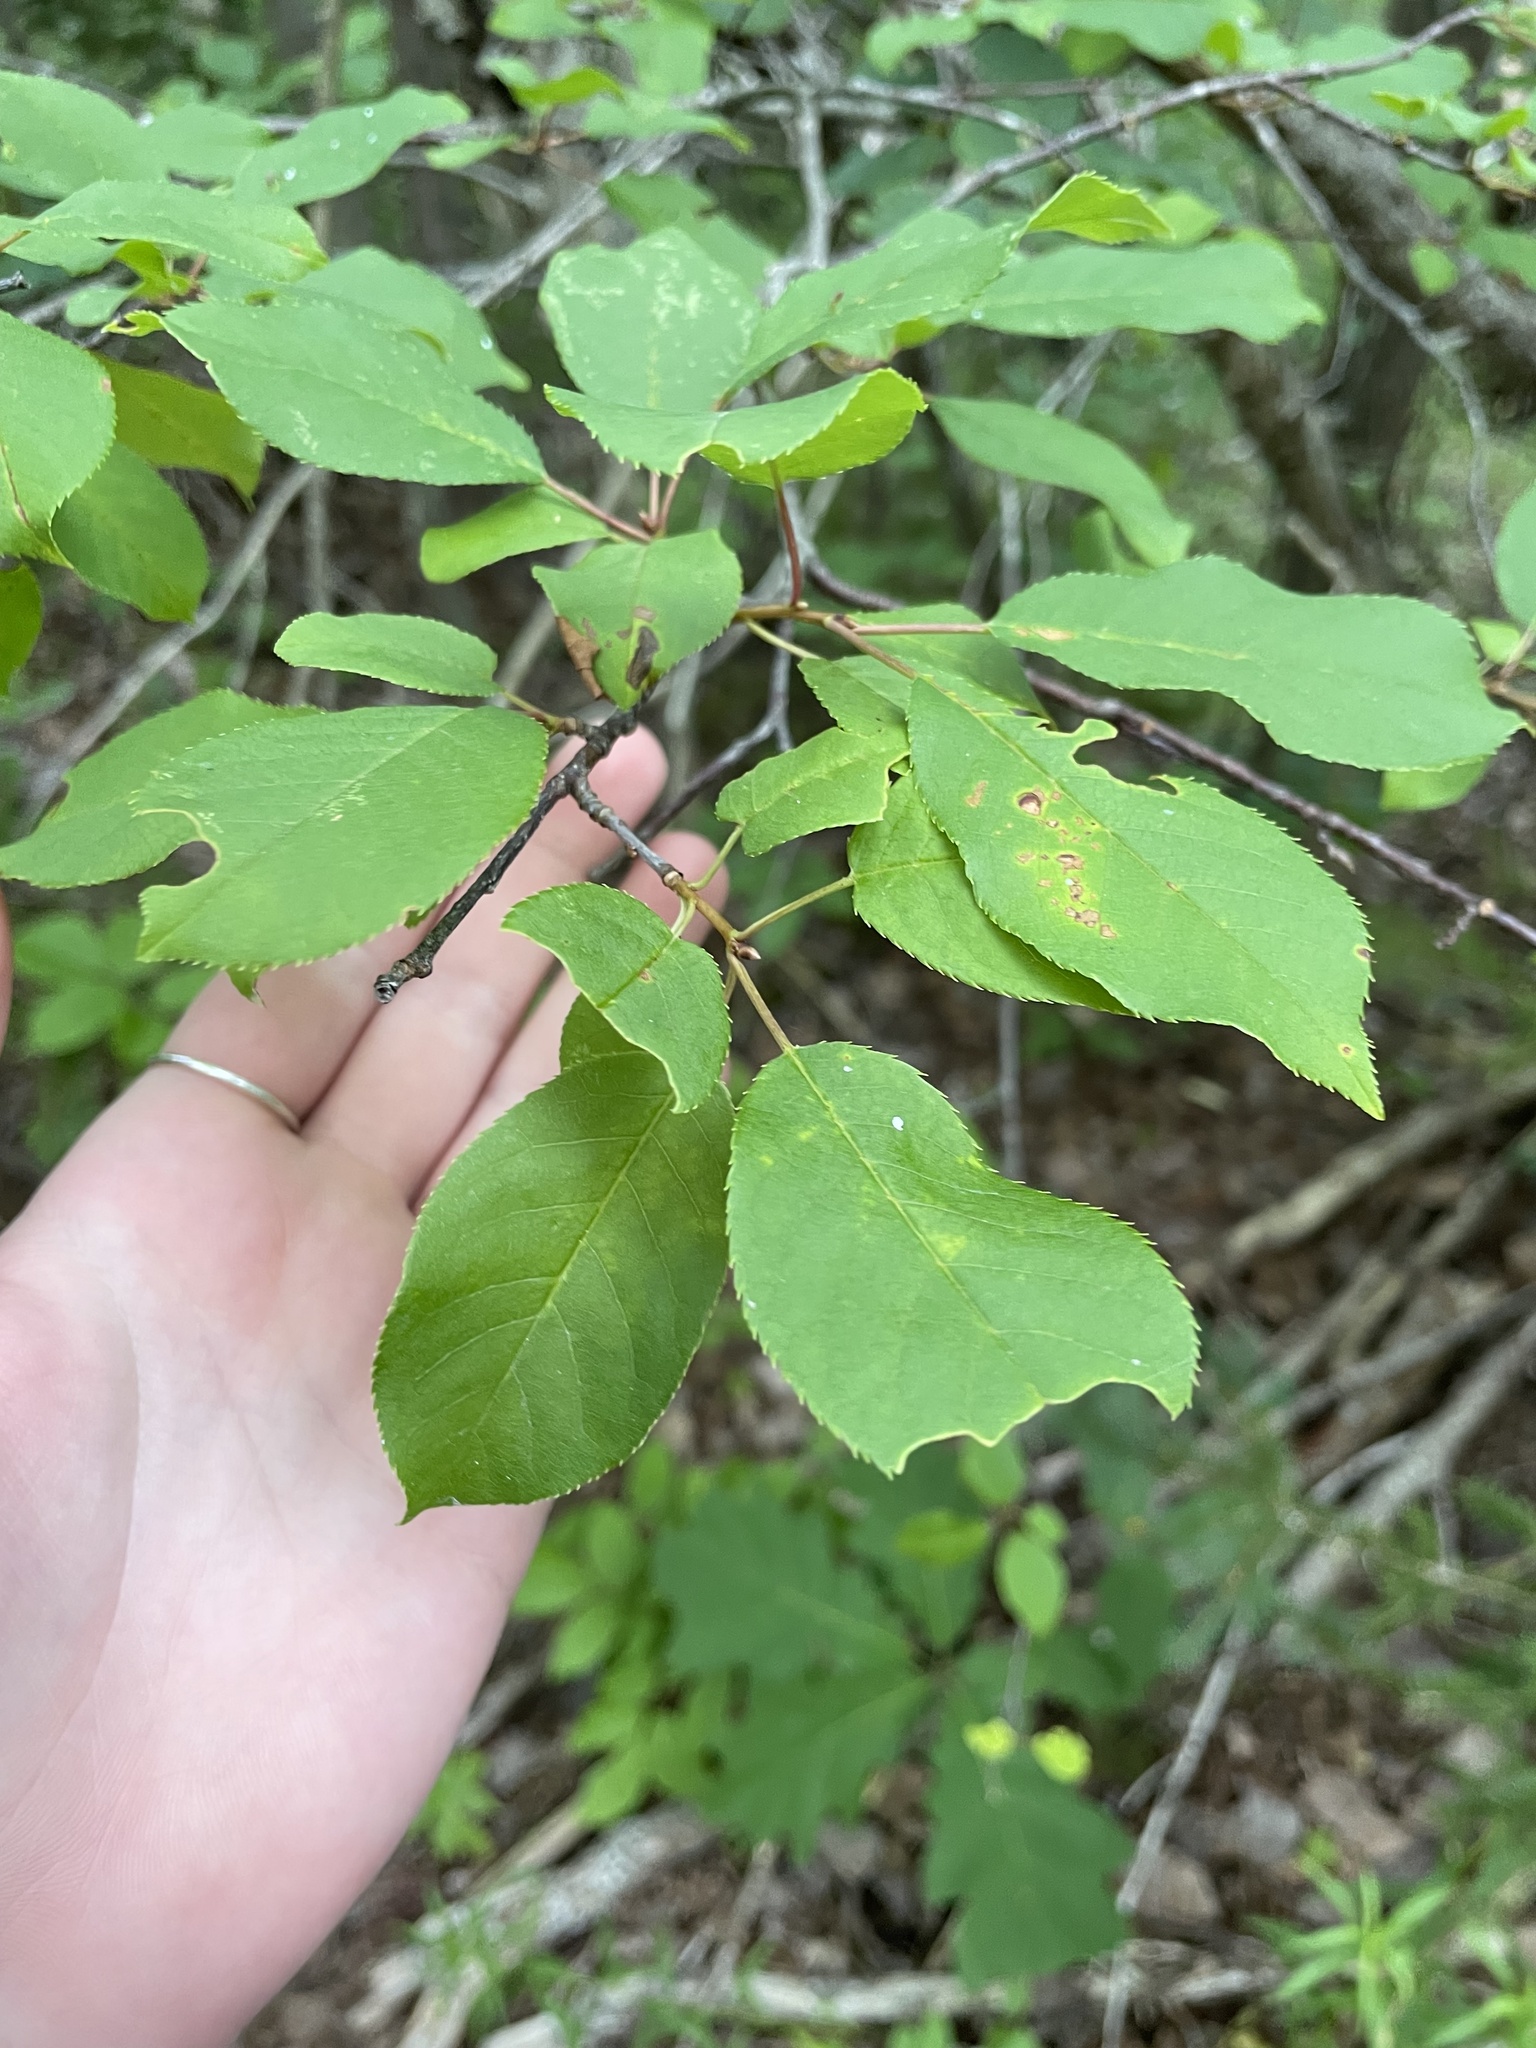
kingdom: Plantae
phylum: Tracheophyta
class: Magnoliopsida
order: Rosales
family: Rosaceae
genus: Prunus
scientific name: Prunus virginiana
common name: Chokecherry
